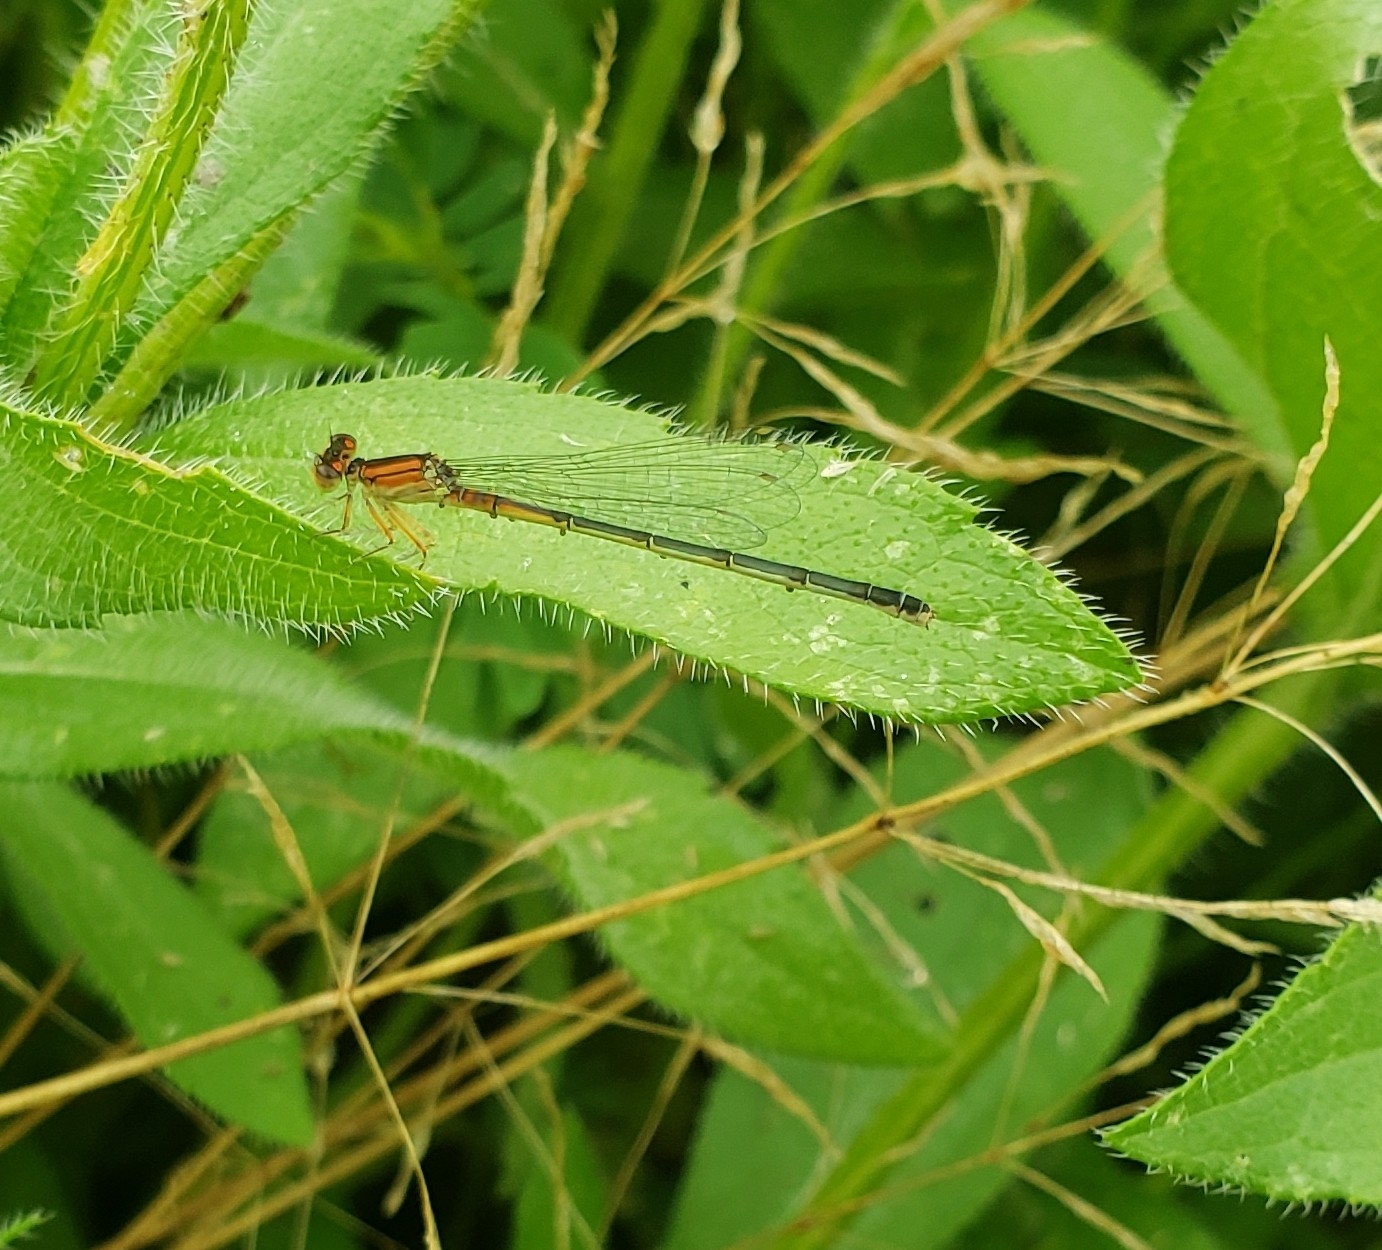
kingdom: Animalia
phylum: Arthropoda
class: Insecta
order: Odonata
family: Coenagrionidae
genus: Ischnura
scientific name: Ischnura verticalis
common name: Eastern forktail
